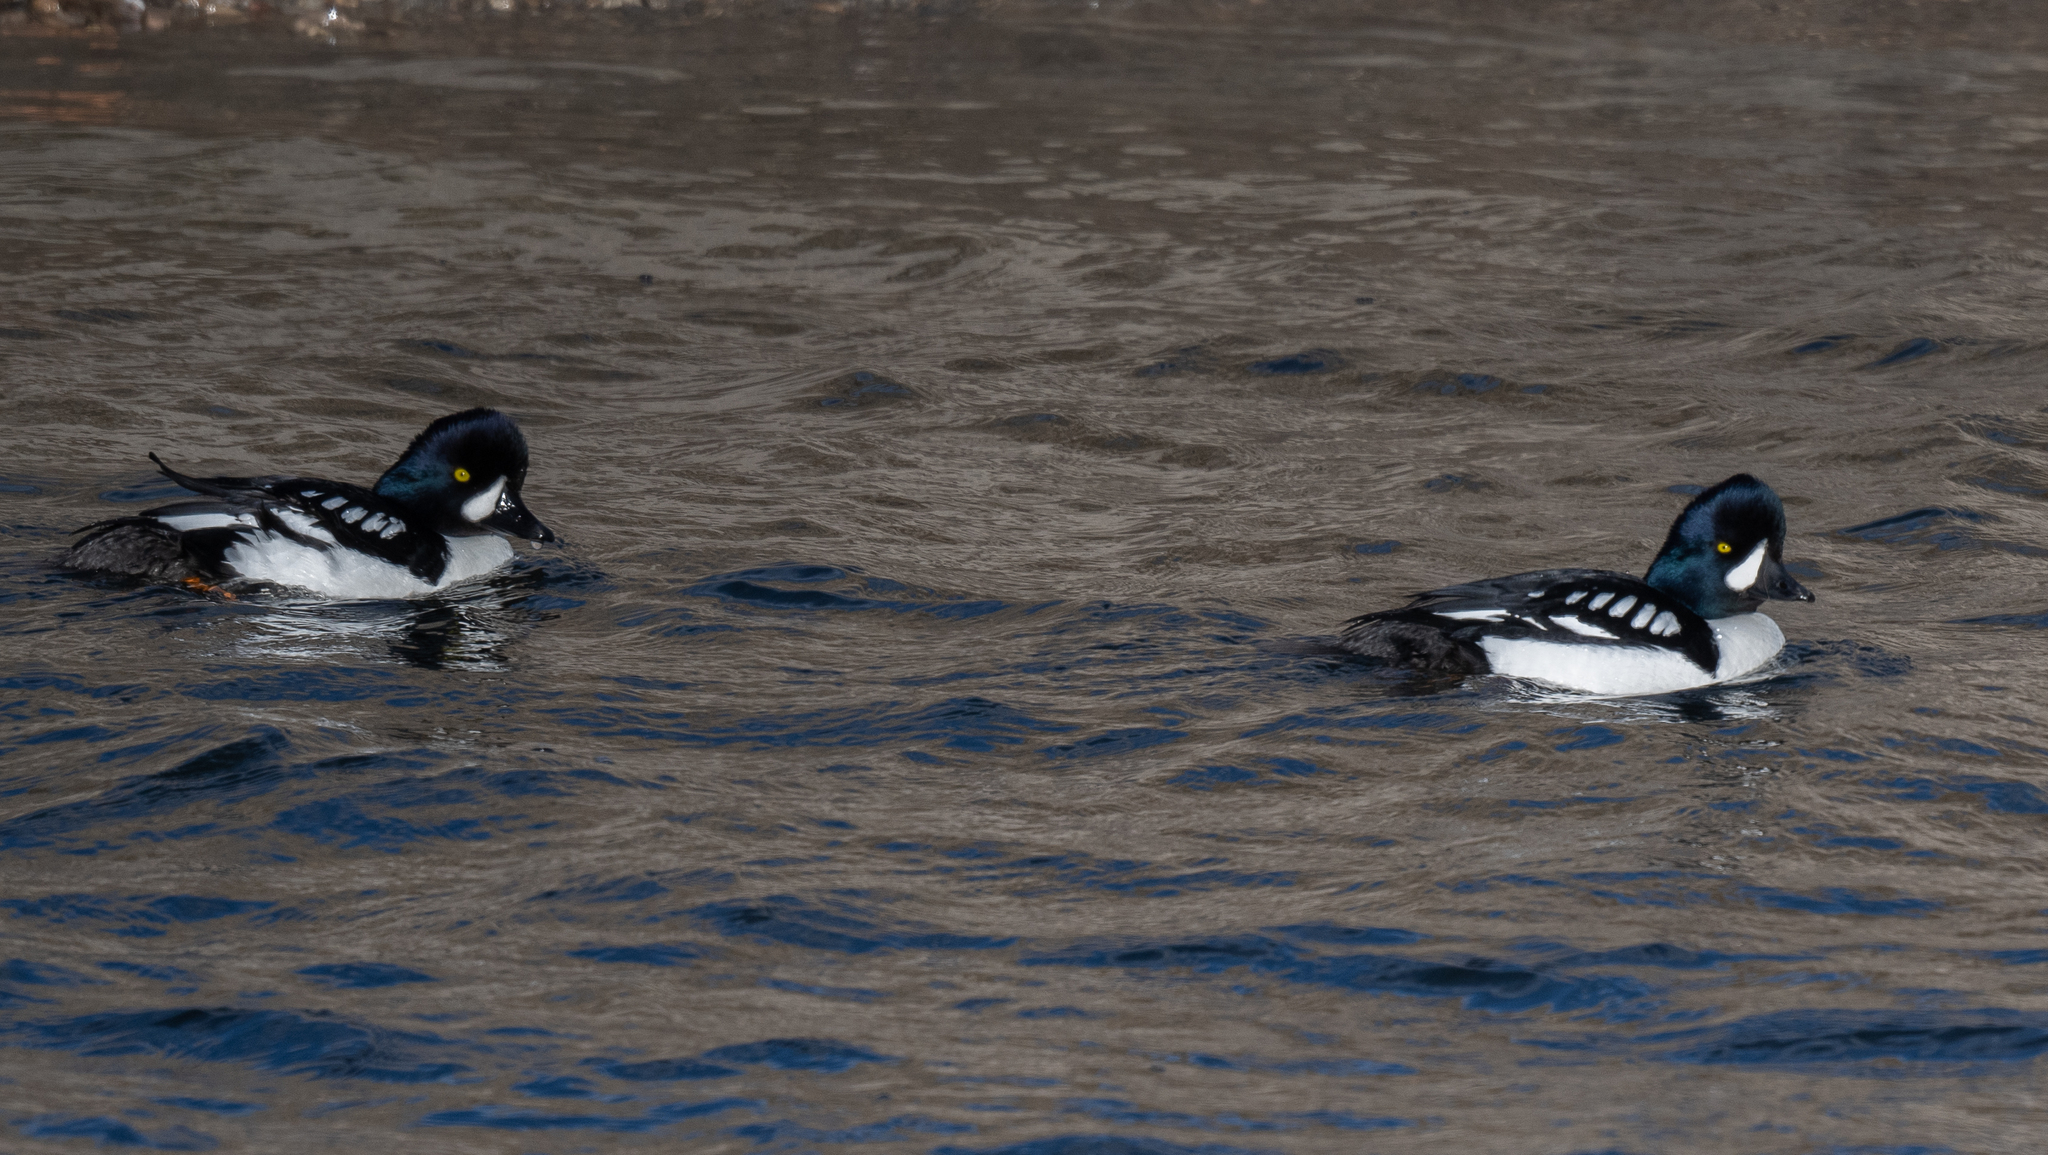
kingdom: Animalia
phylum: Chordata
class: Aves
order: Anseriformes
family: Anatidae
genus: Bucephala
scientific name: Bucephala islandica
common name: Barrow's goldeneye
